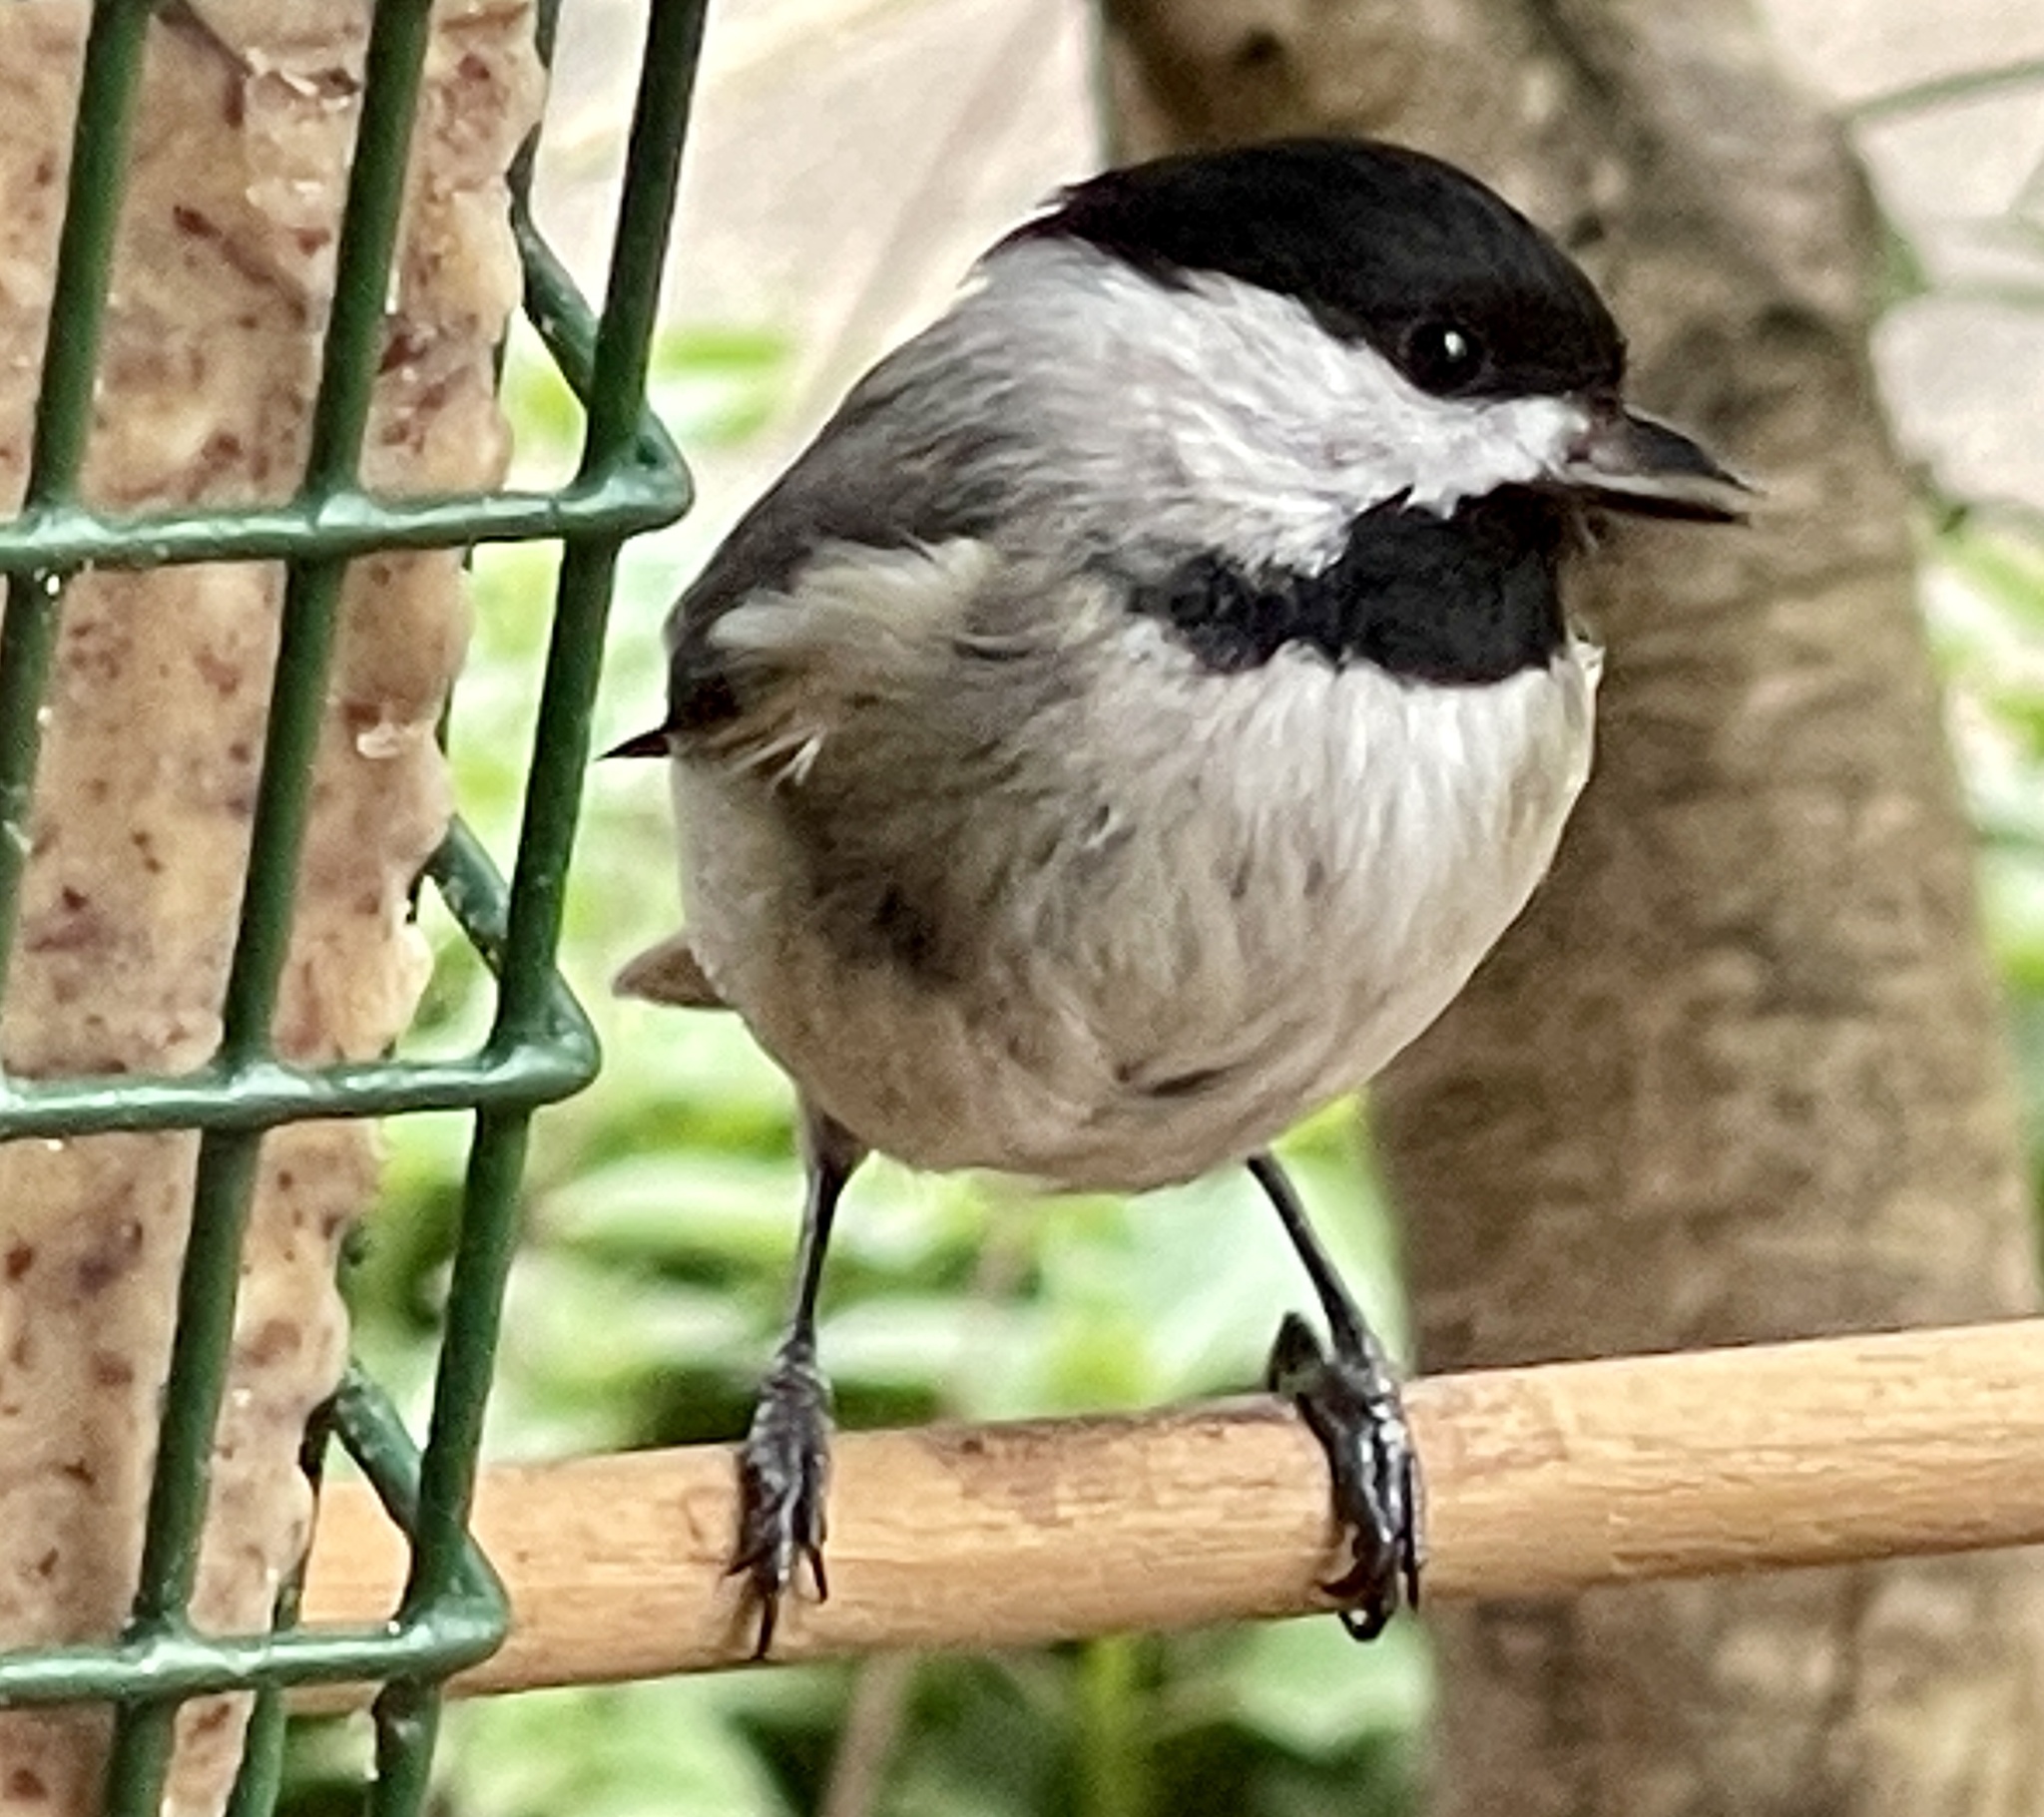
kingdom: Animalia
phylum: Chordata
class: Aves
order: Passeriformes
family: Paridae
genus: Poecile
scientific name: Poecile carolinensis
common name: Carolina chickadee
